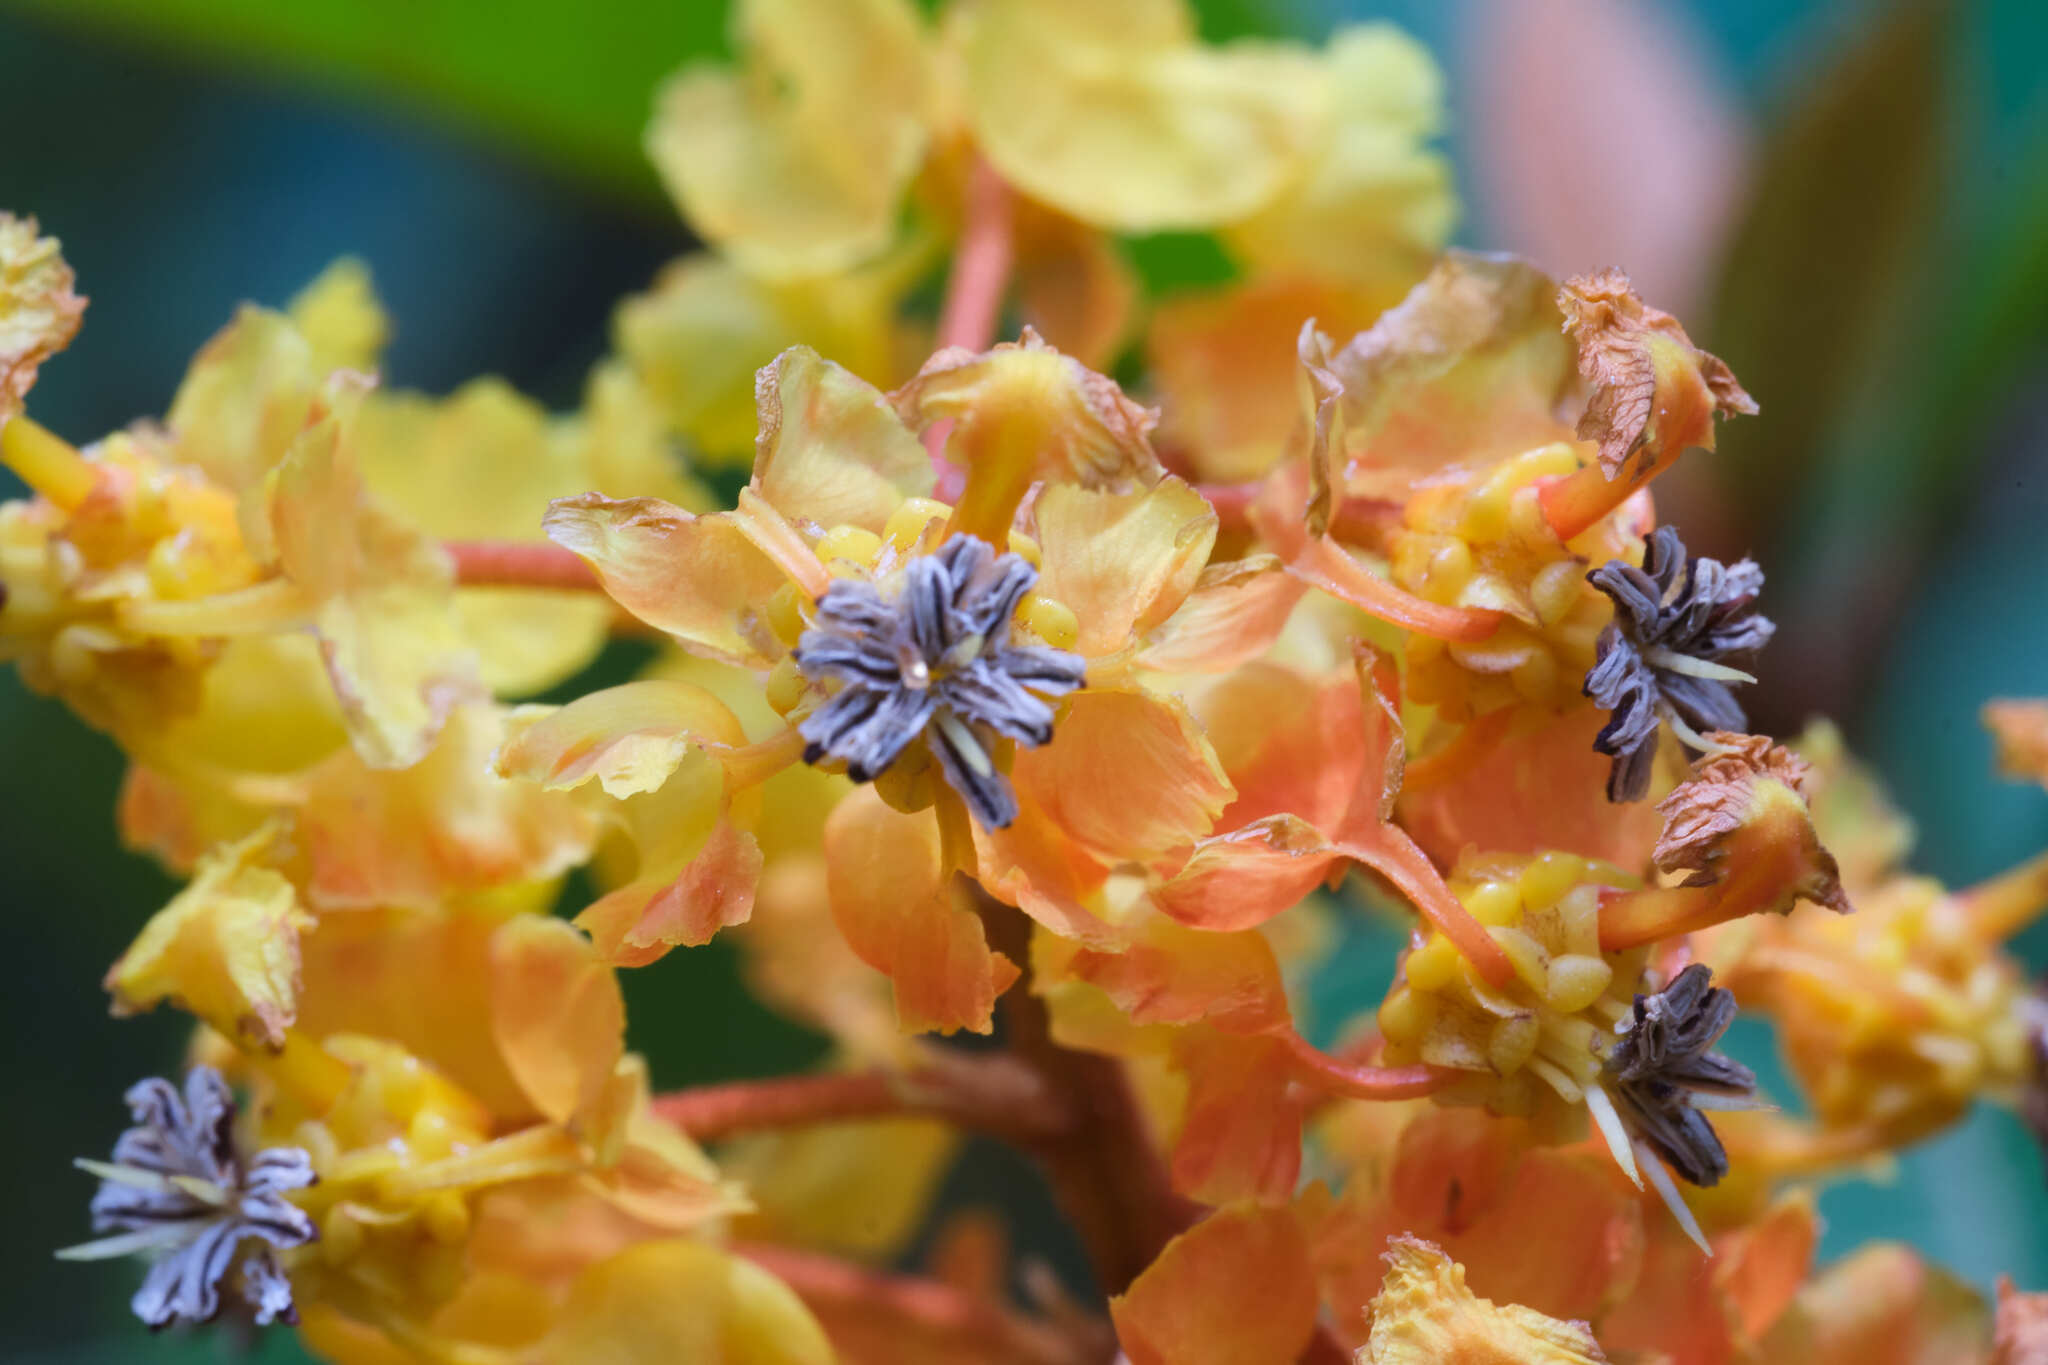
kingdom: Plantae
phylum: Tracheophyta
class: Magnoliopsida
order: Malpighiales
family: Malpighiaceae
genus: Byrsonima
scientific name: Byrsonima crassifolia
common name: Golden spoon
